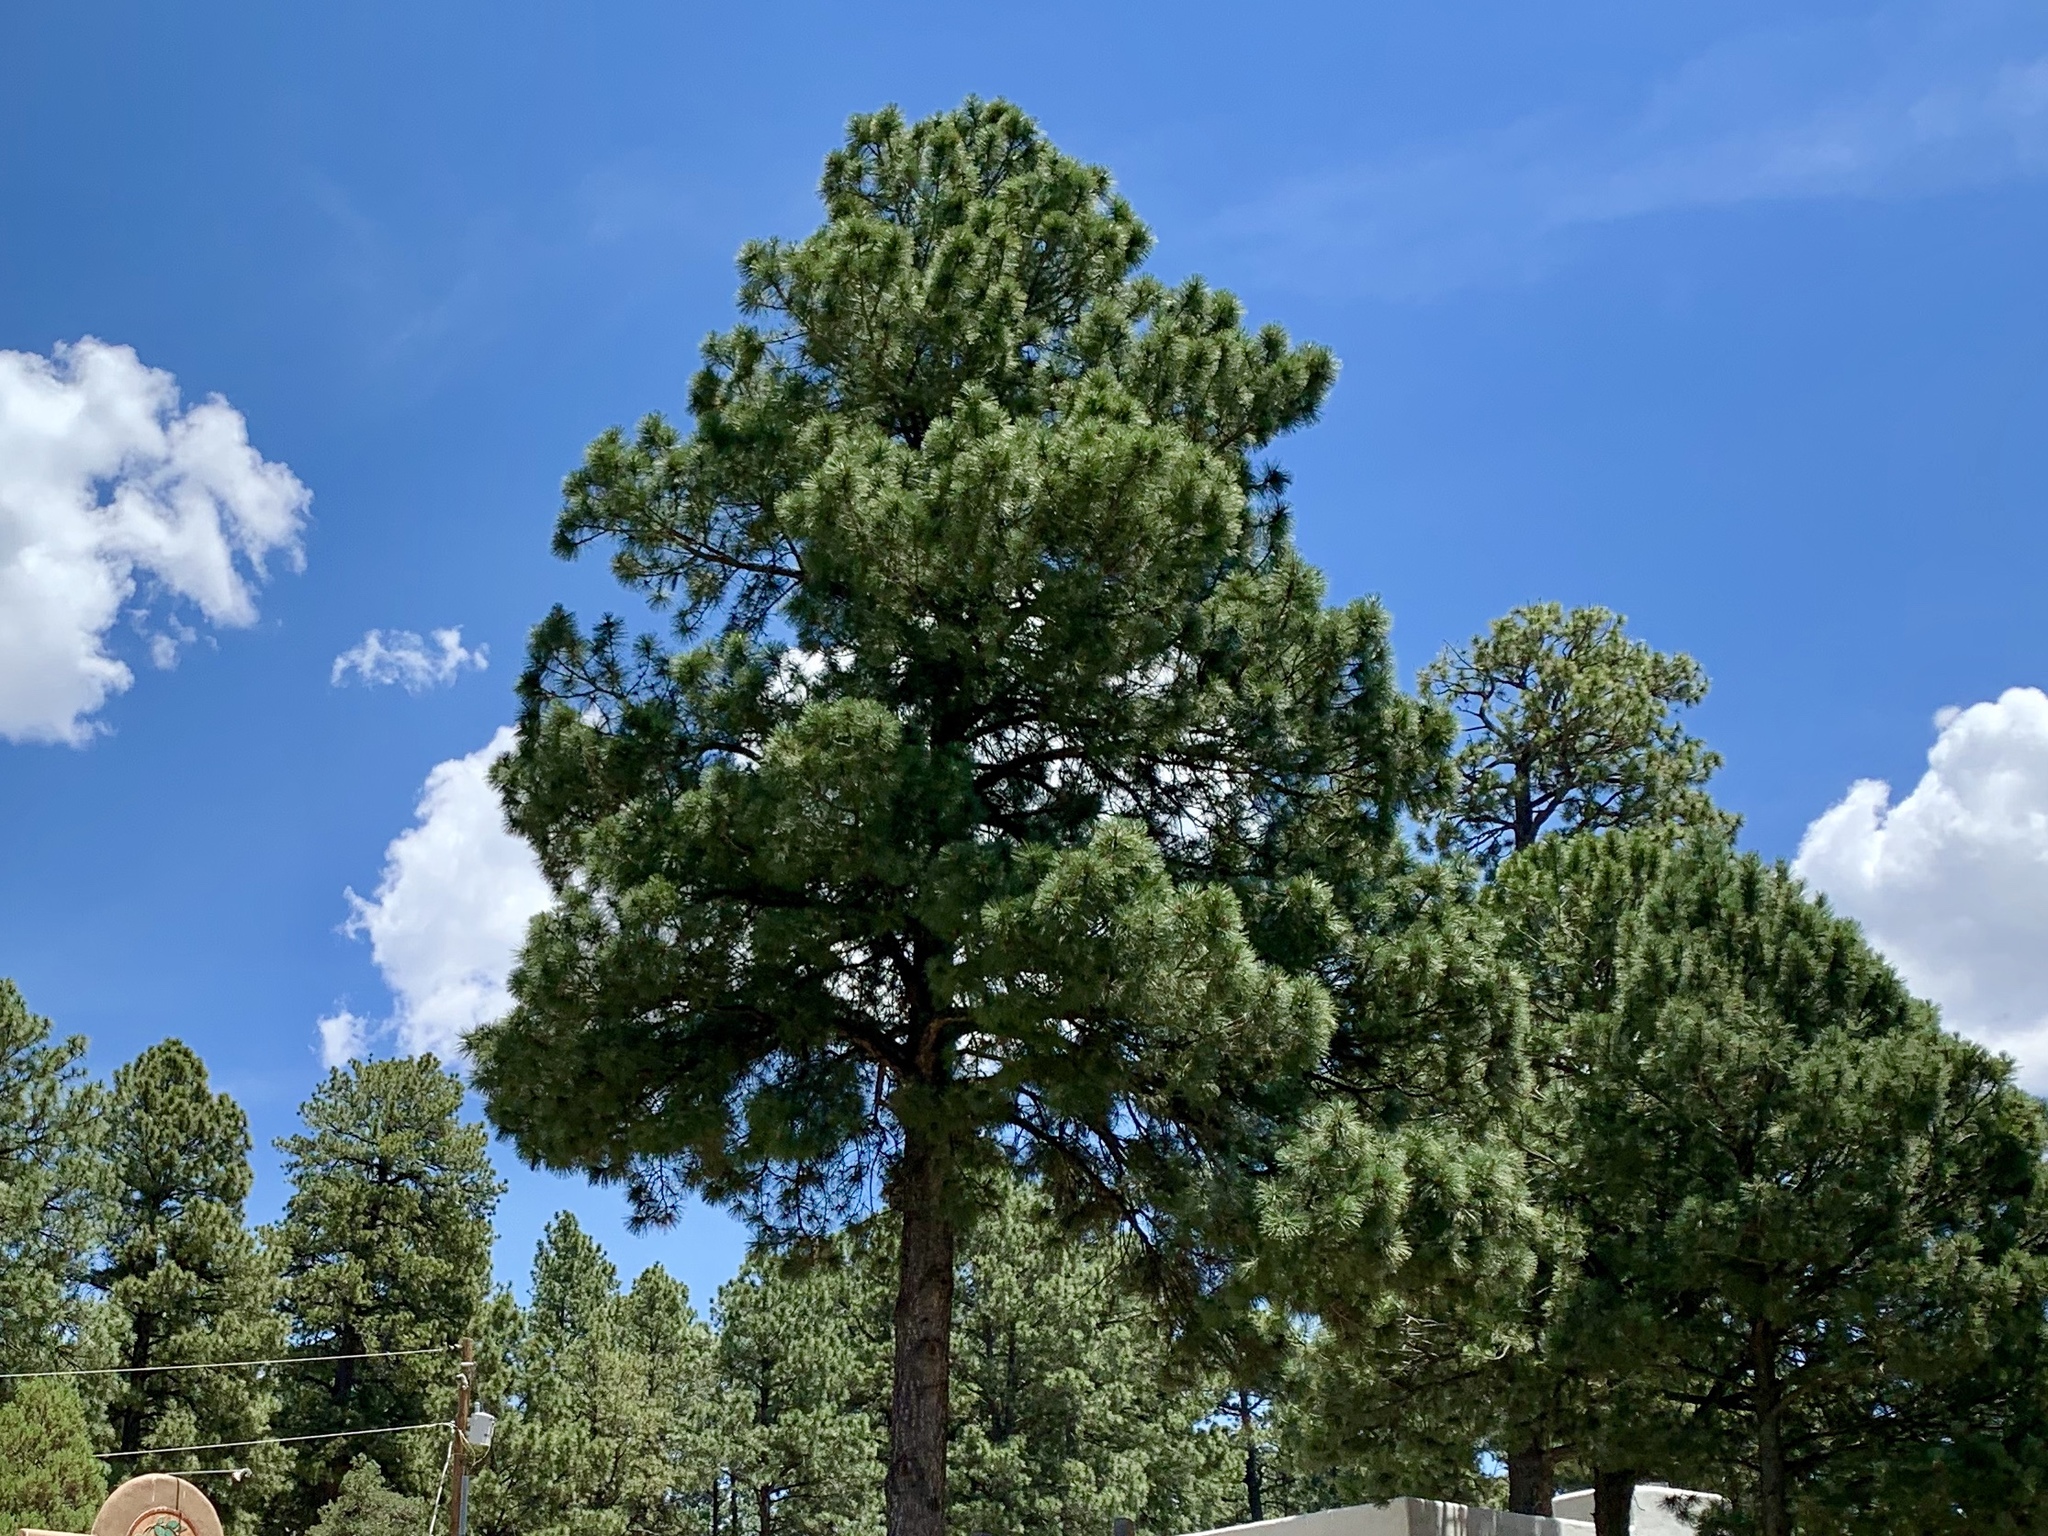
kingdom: Plantae
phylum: Tracheophyta
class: Pinopsida
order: Pinales
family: Pinaceae
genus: Pinus
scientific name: Pinus ponderosa
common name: Western yellow-pine
